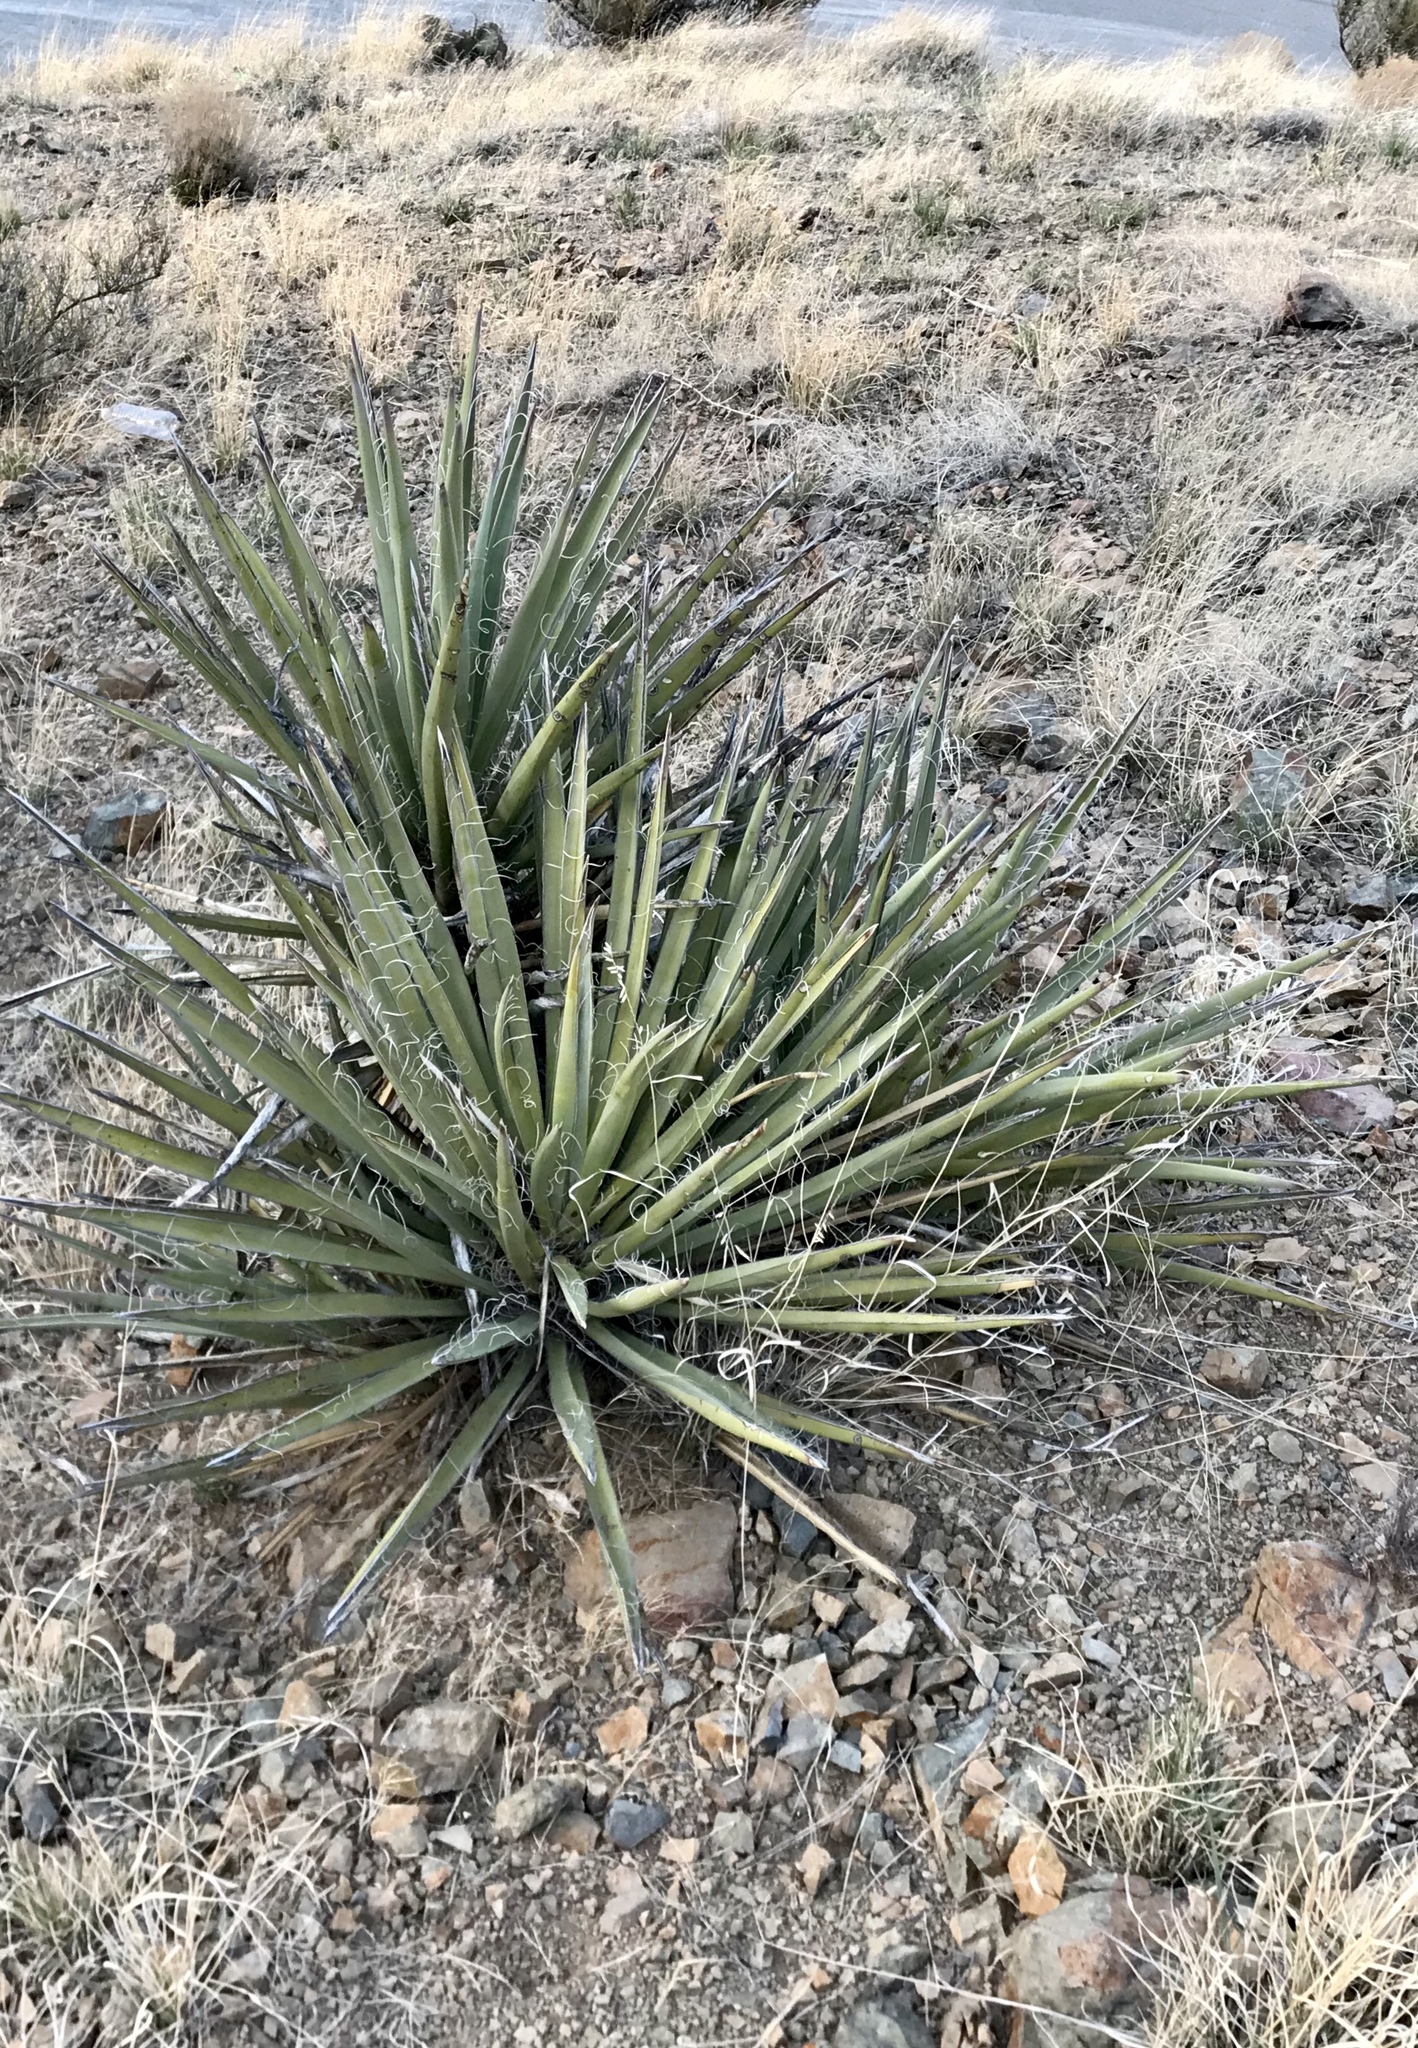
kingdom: Plantae
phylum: Tracheophyta
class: Liliopsida
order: Asparagales
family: Asparagaceae
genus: Yucca
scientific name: Yucca baccata
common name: Banana yucca
